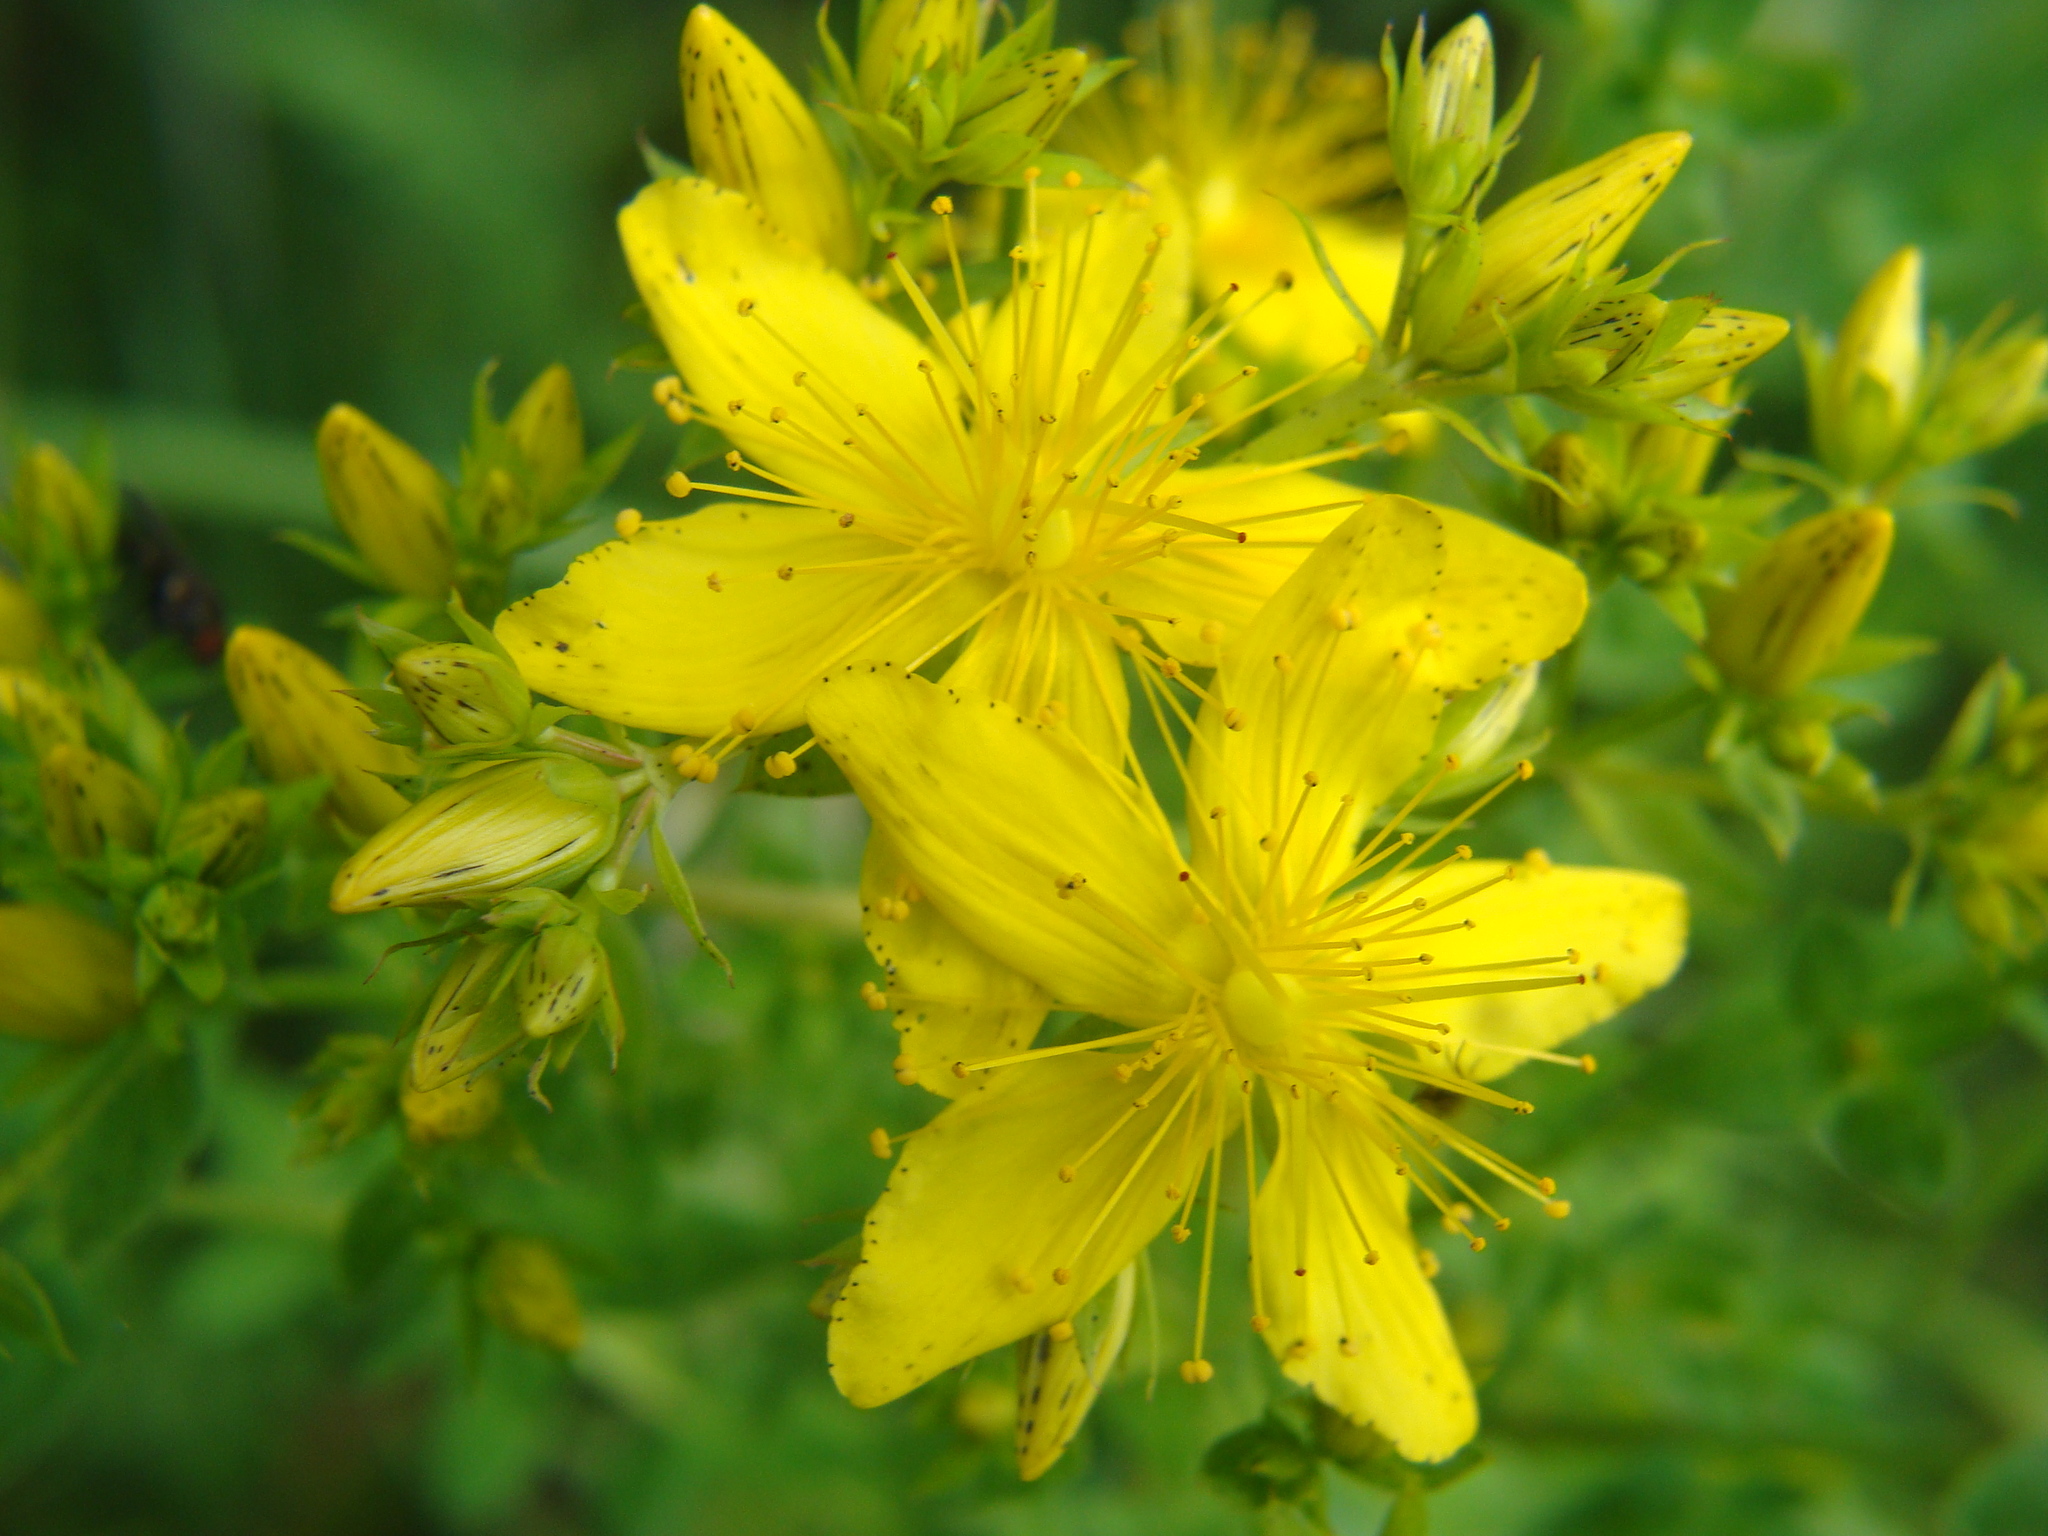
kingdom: Plantae
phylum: Tracheophyta
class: Magnoliopsida
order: Malpighiales
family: Hypericaceae
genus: Hypericum
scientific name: Hypericum perforatum
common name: Common st. johnswort
